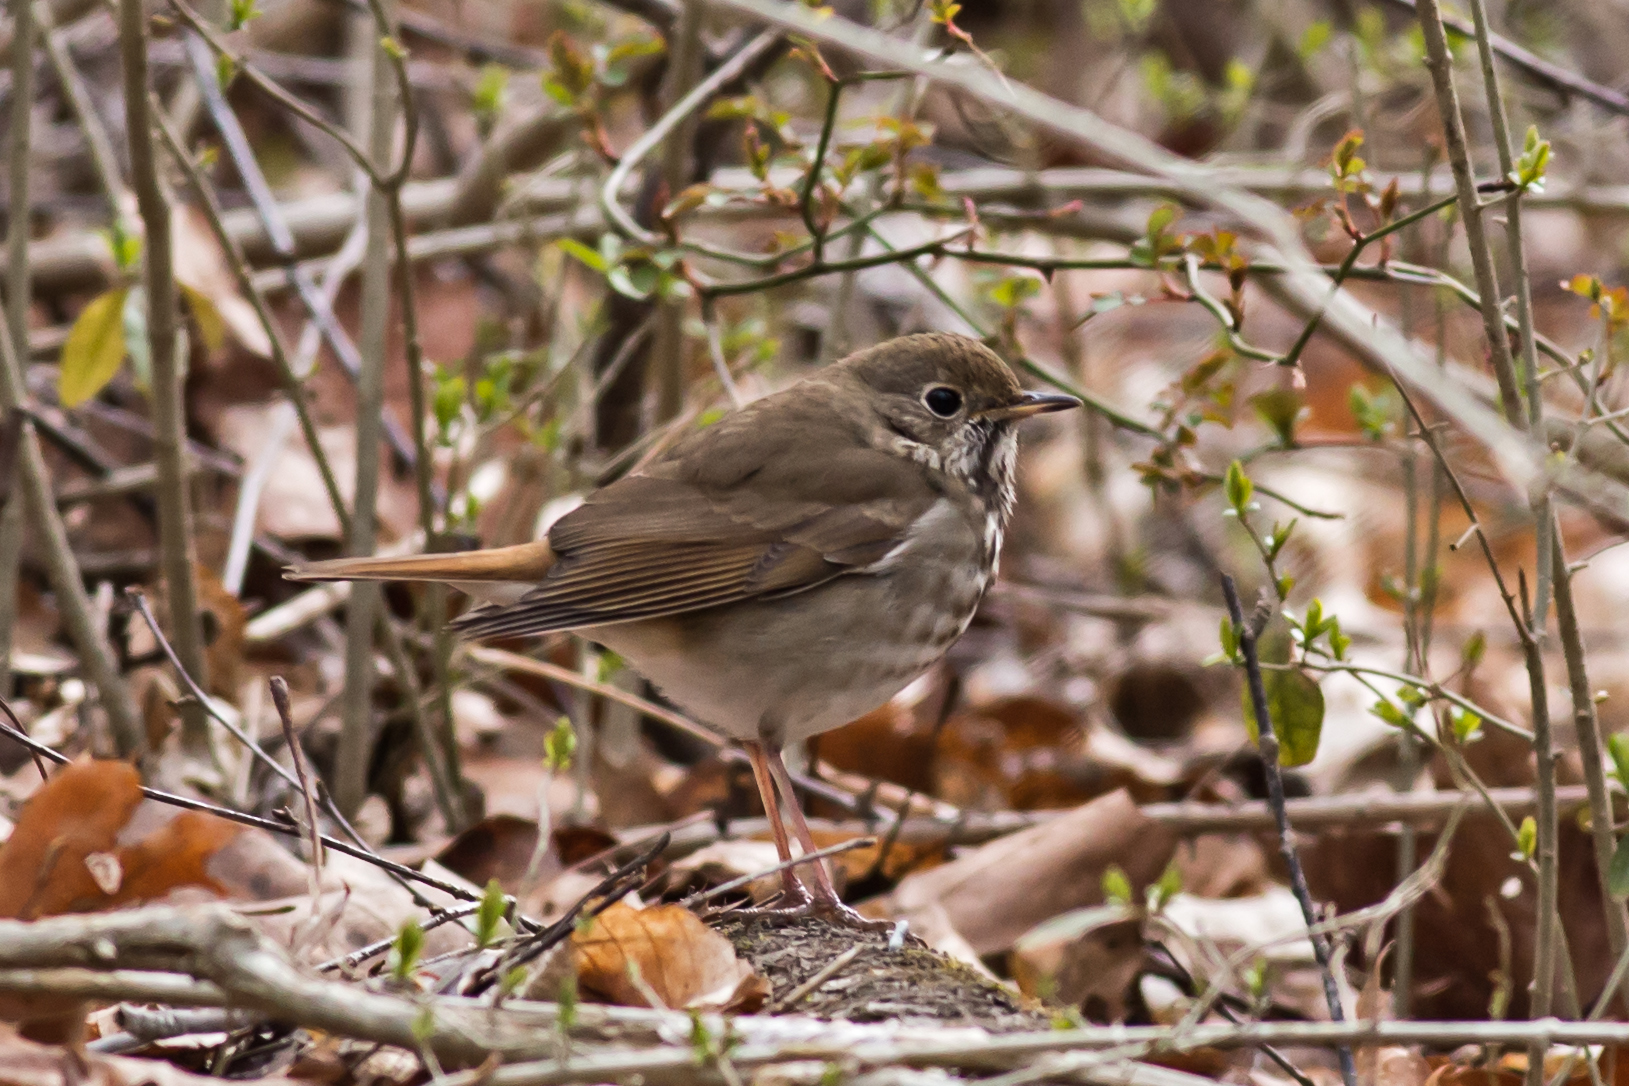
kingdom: Animalia
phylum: Chordata
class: Aves
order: Passeriformes
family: Turdidae
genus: Catharus
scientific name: Catharus guttatus
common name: Hermit thrush
